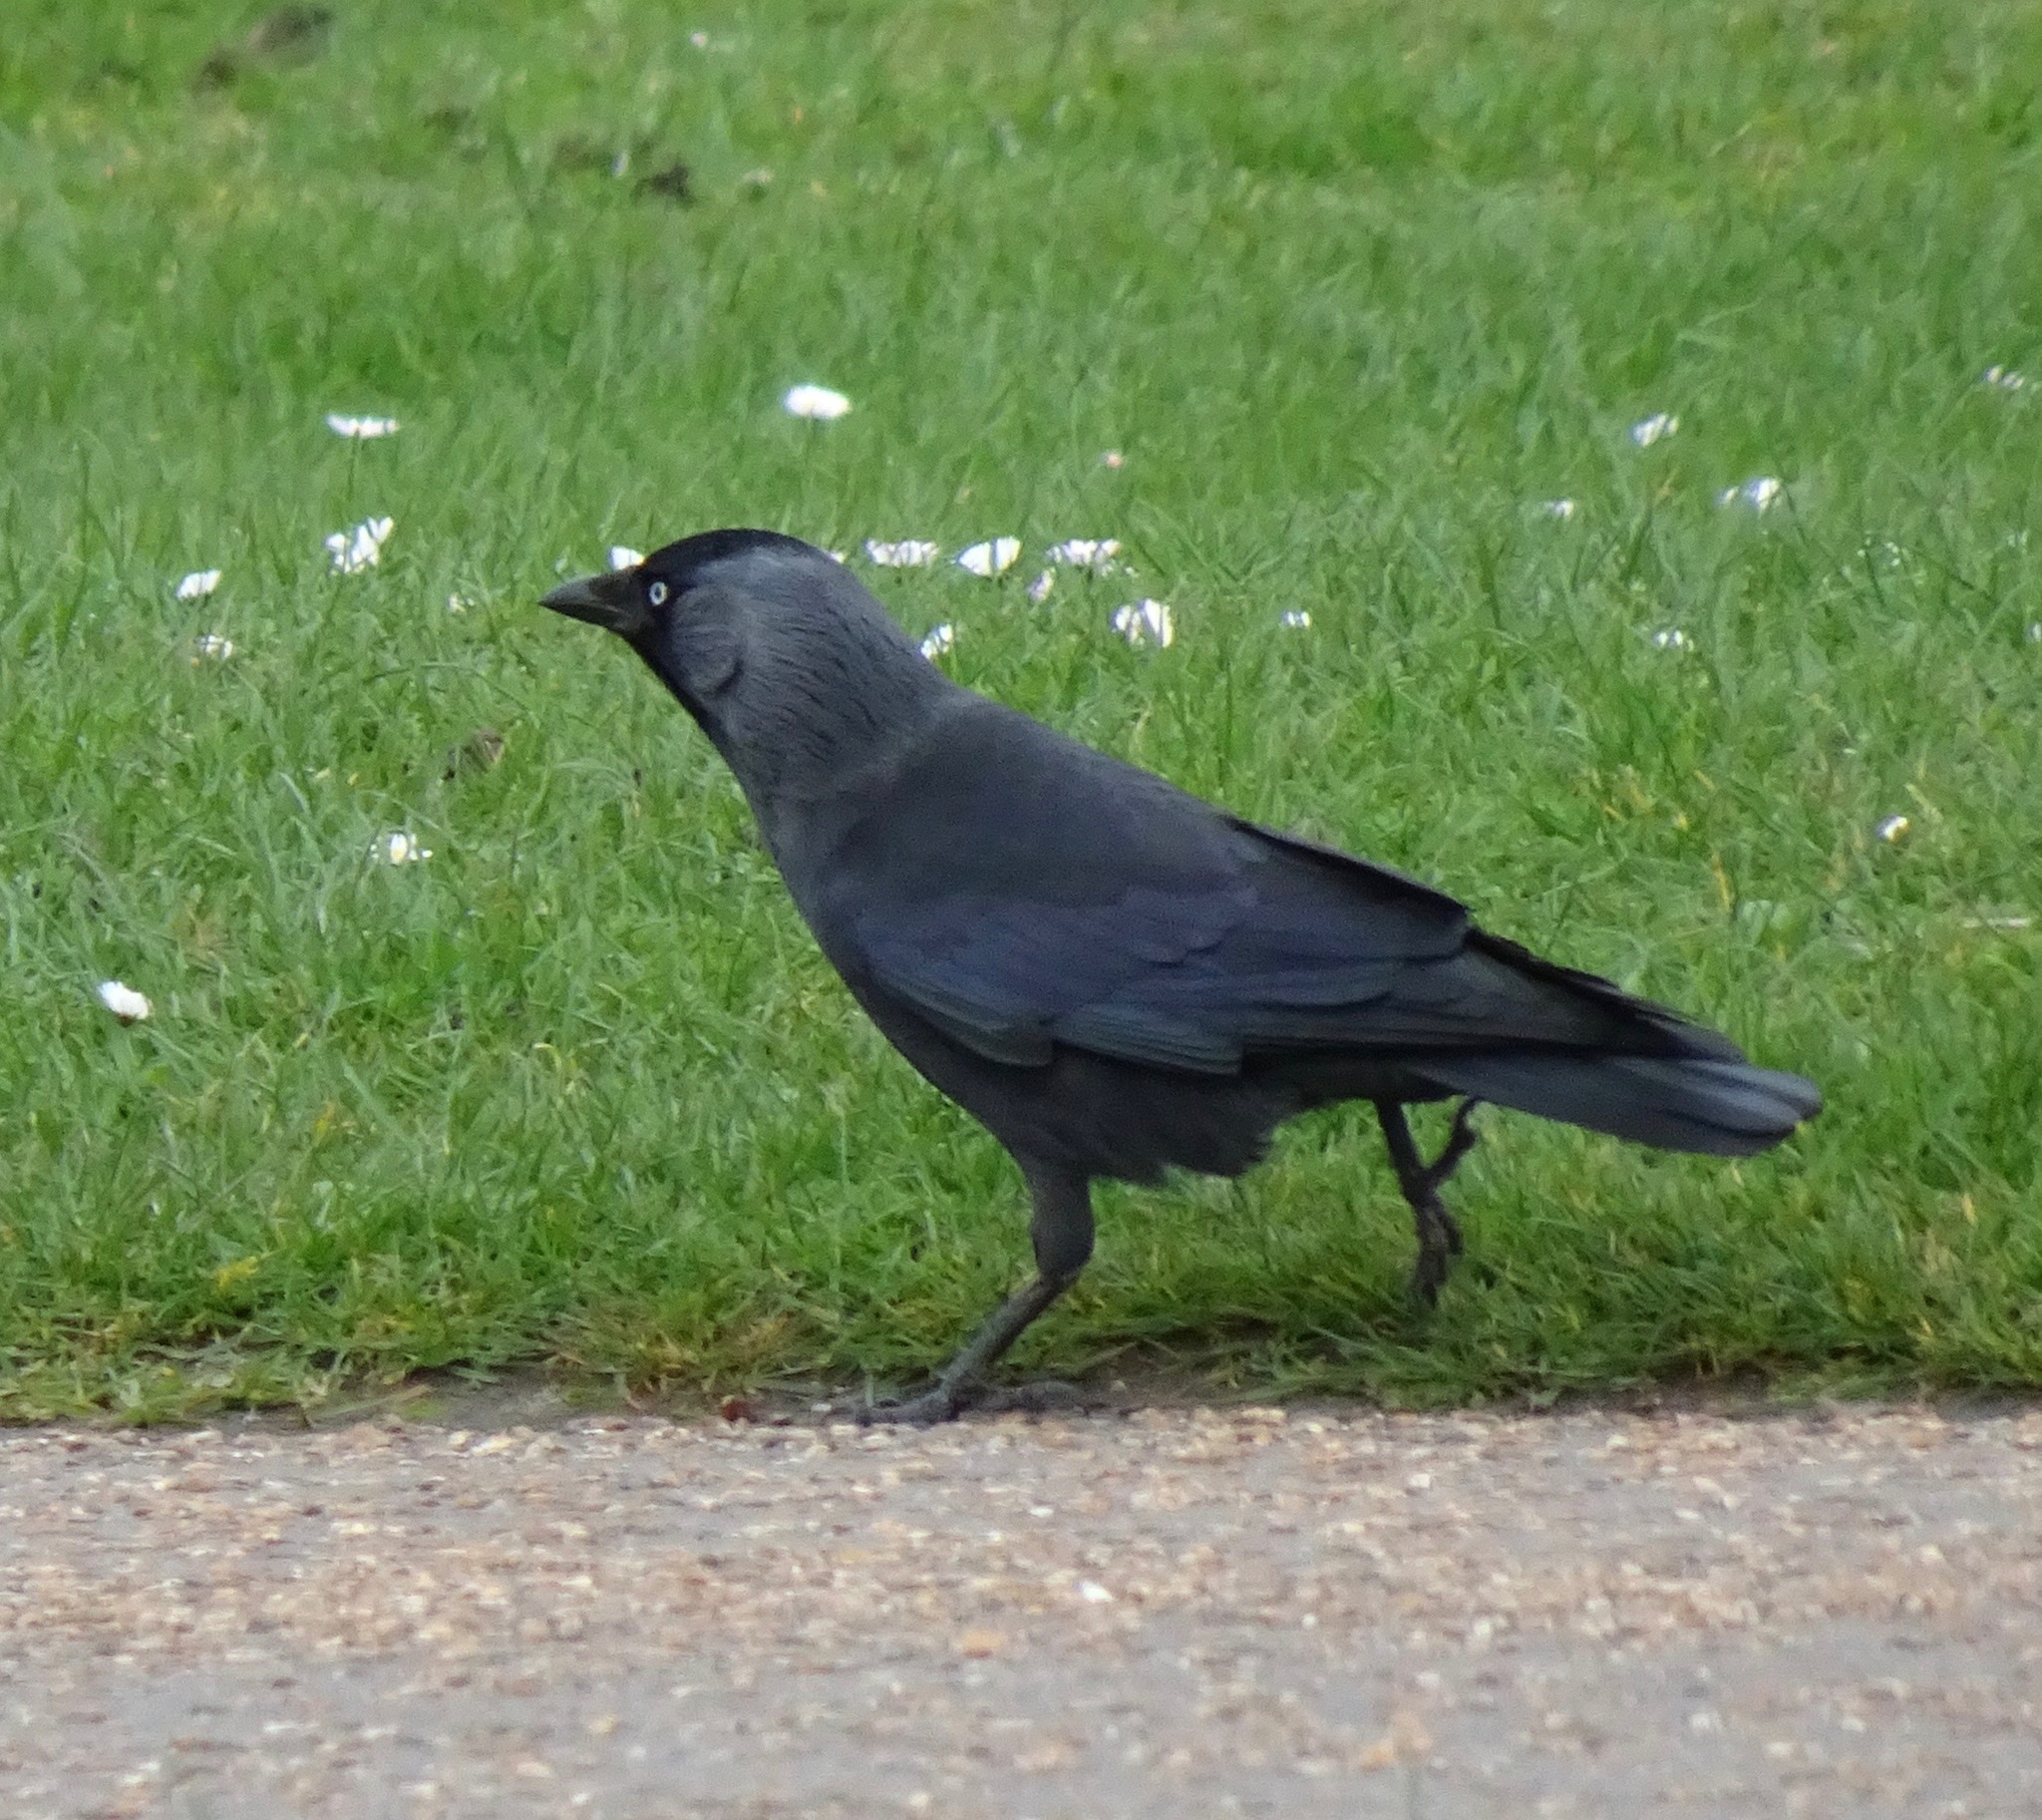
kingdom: Animalia
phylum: Chordata
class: Aves
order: Passeriformes
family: Corvidae
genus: Coloeus
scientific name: Coloeus monedula
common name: Western jackdaw
